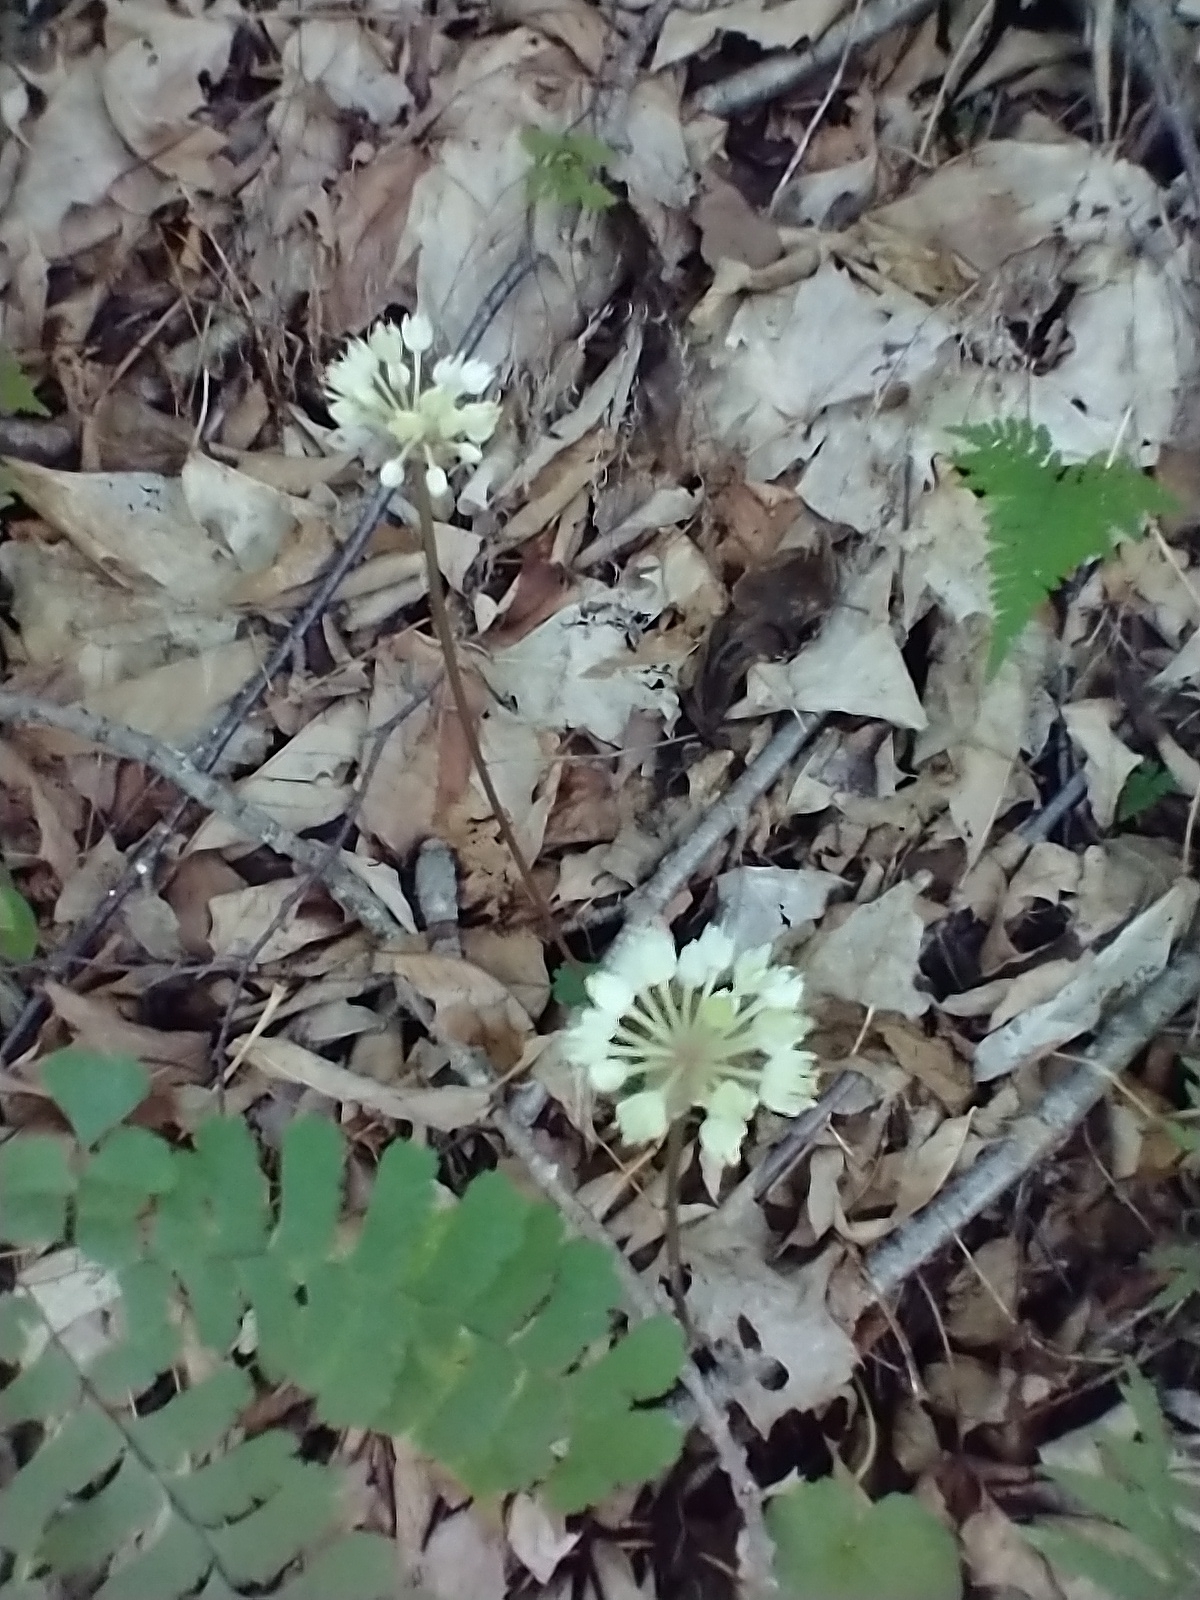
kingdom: Plantae
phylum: Tracheophyta
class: Liliopsida
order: Asparagales
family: Amaryllidaceae
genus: Allium
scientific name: Allium tricoccum
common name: Ramp
